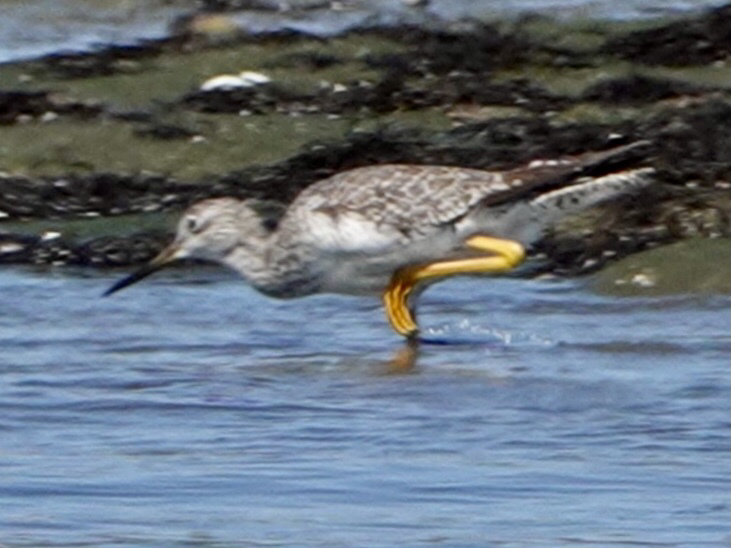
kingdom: Animalia
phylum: Chordata
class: Aves
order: Charadriiformes
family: Scolopacidae
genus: Tringa
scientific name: Tringa melanoleuca
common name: Greater yellowlegs
